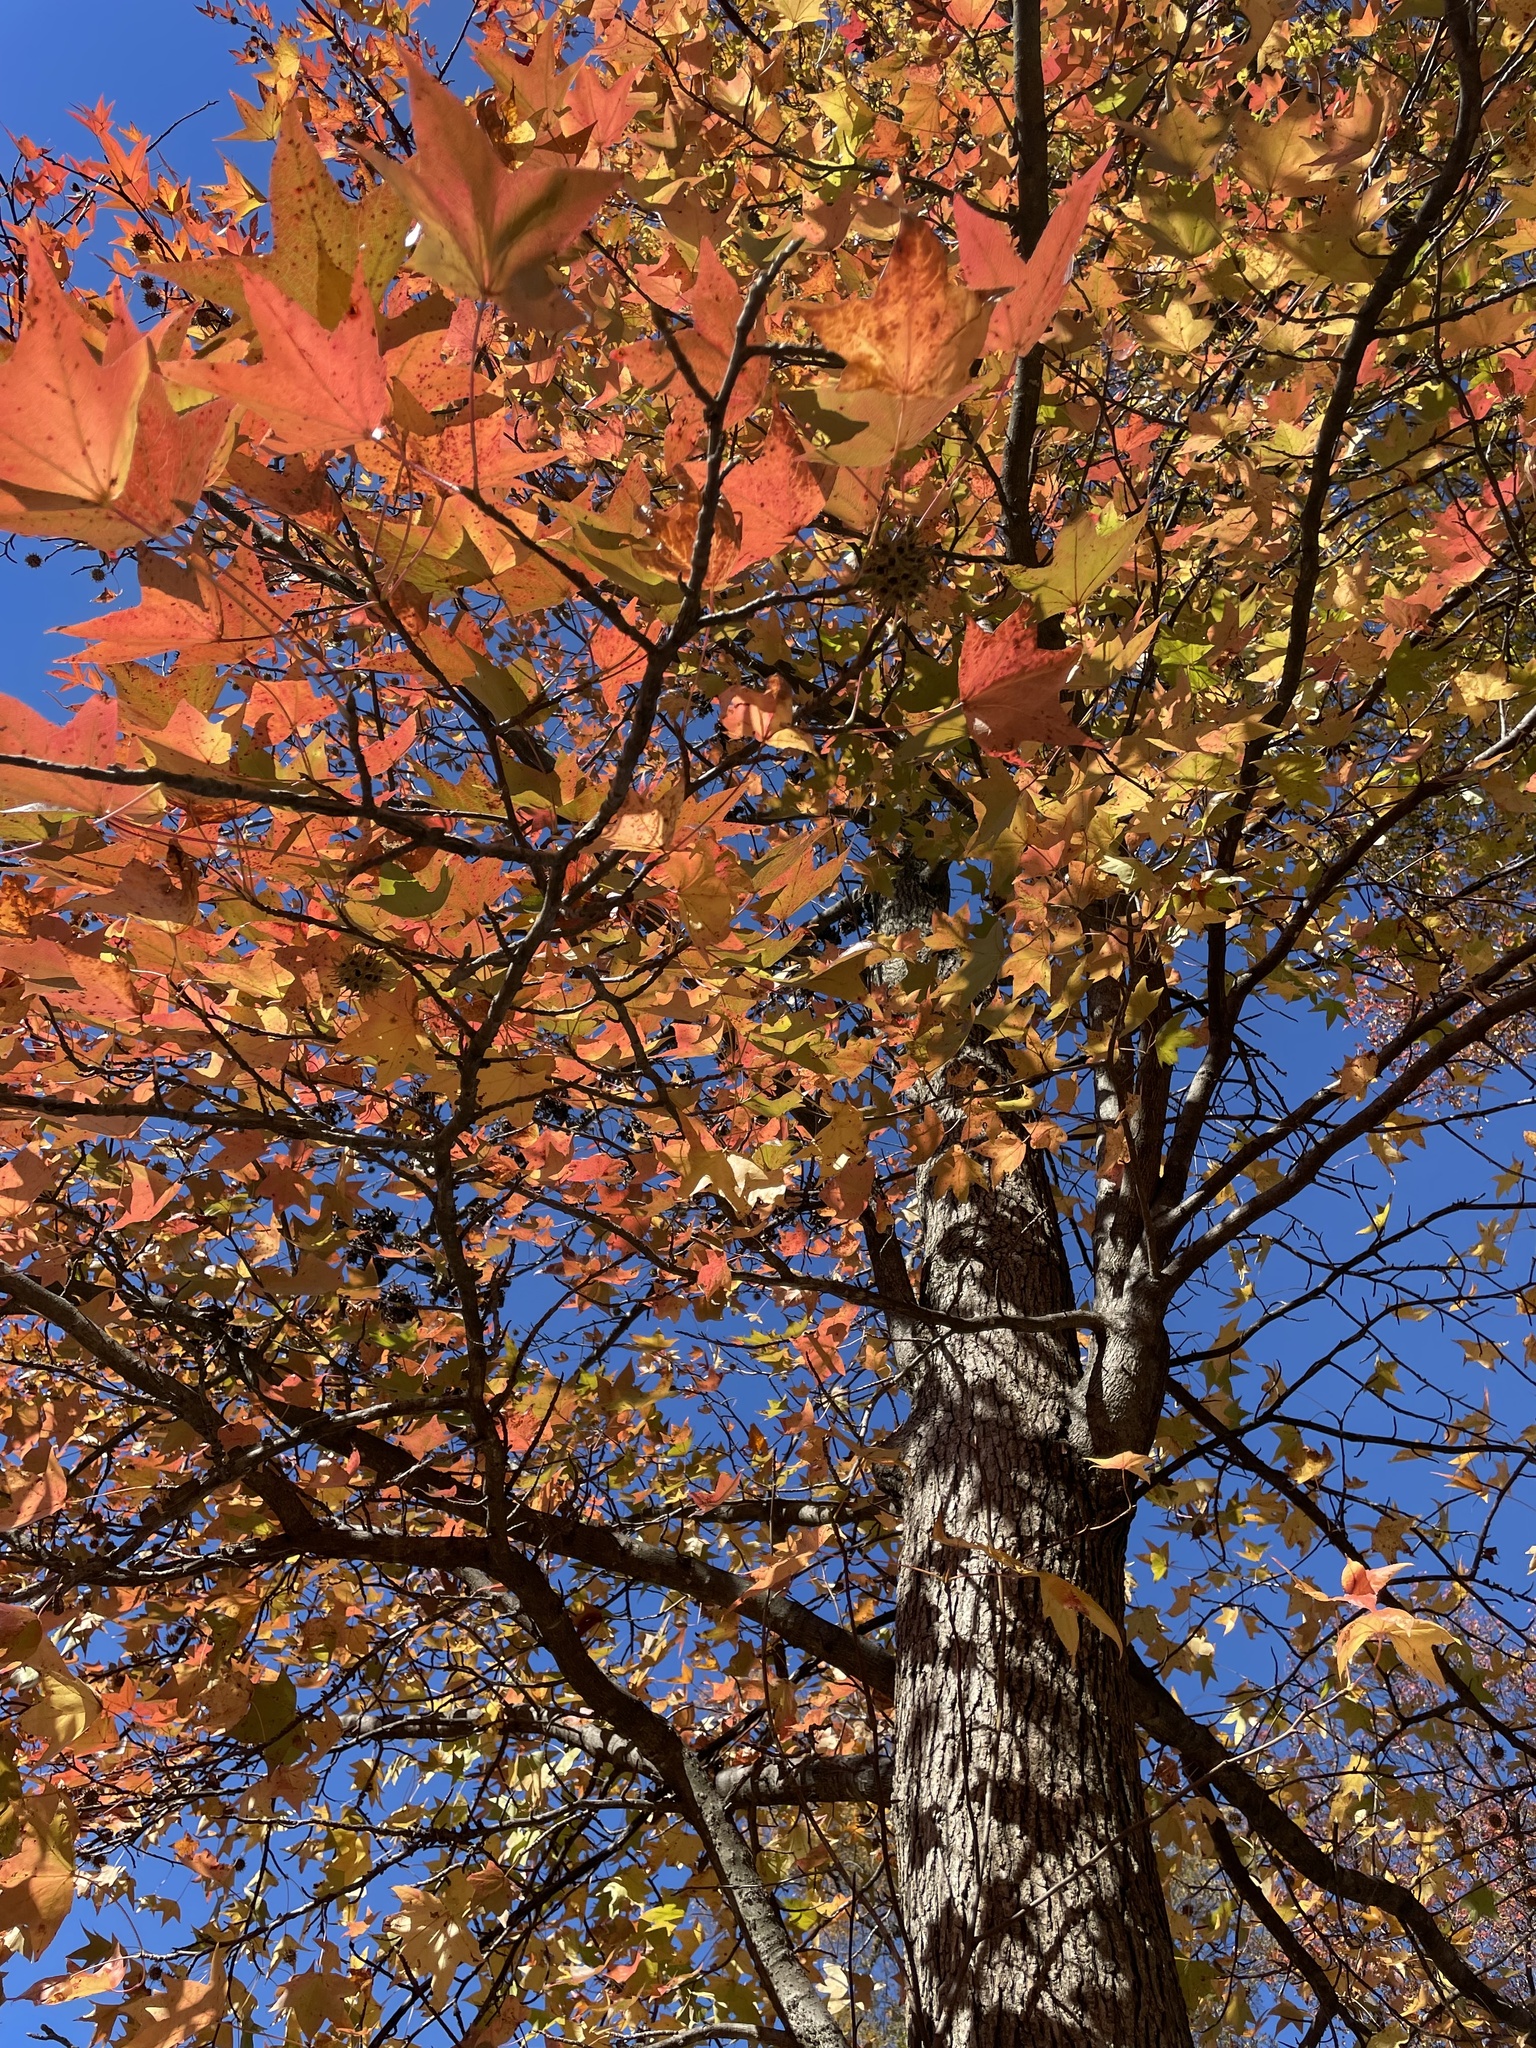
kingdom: Plantae
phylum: Tracheophyta
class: Magnoliopsida
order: Saxifragales
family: Altingiaceae
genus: Liquidambar
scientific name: Liquidambar styraciflua
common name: Sweet gum
